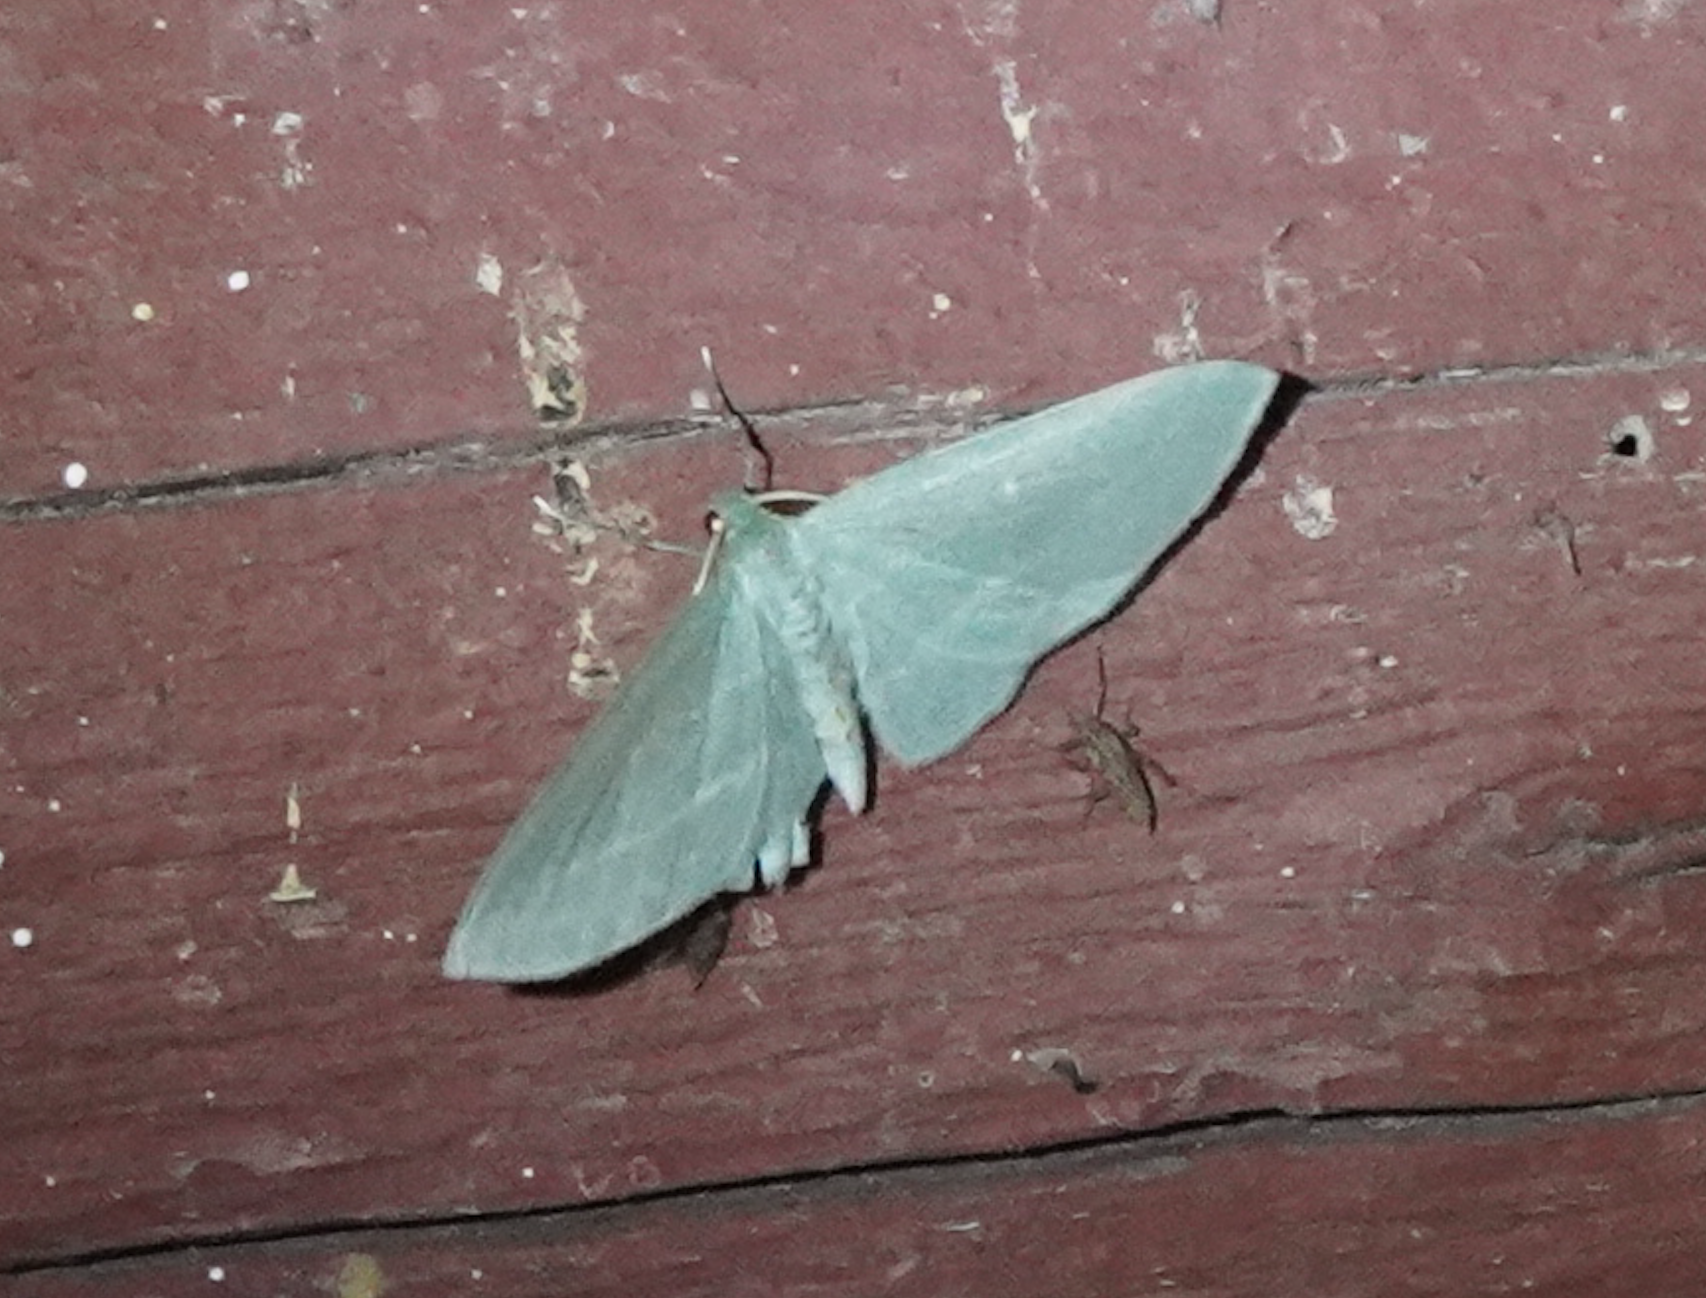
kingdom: Animalia
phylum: Arthropoda
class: Insecta
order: Lepidoptera
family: Geometridae
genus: Dyspteris
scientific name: Dyspteris abortivaria
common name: Bad-wing
